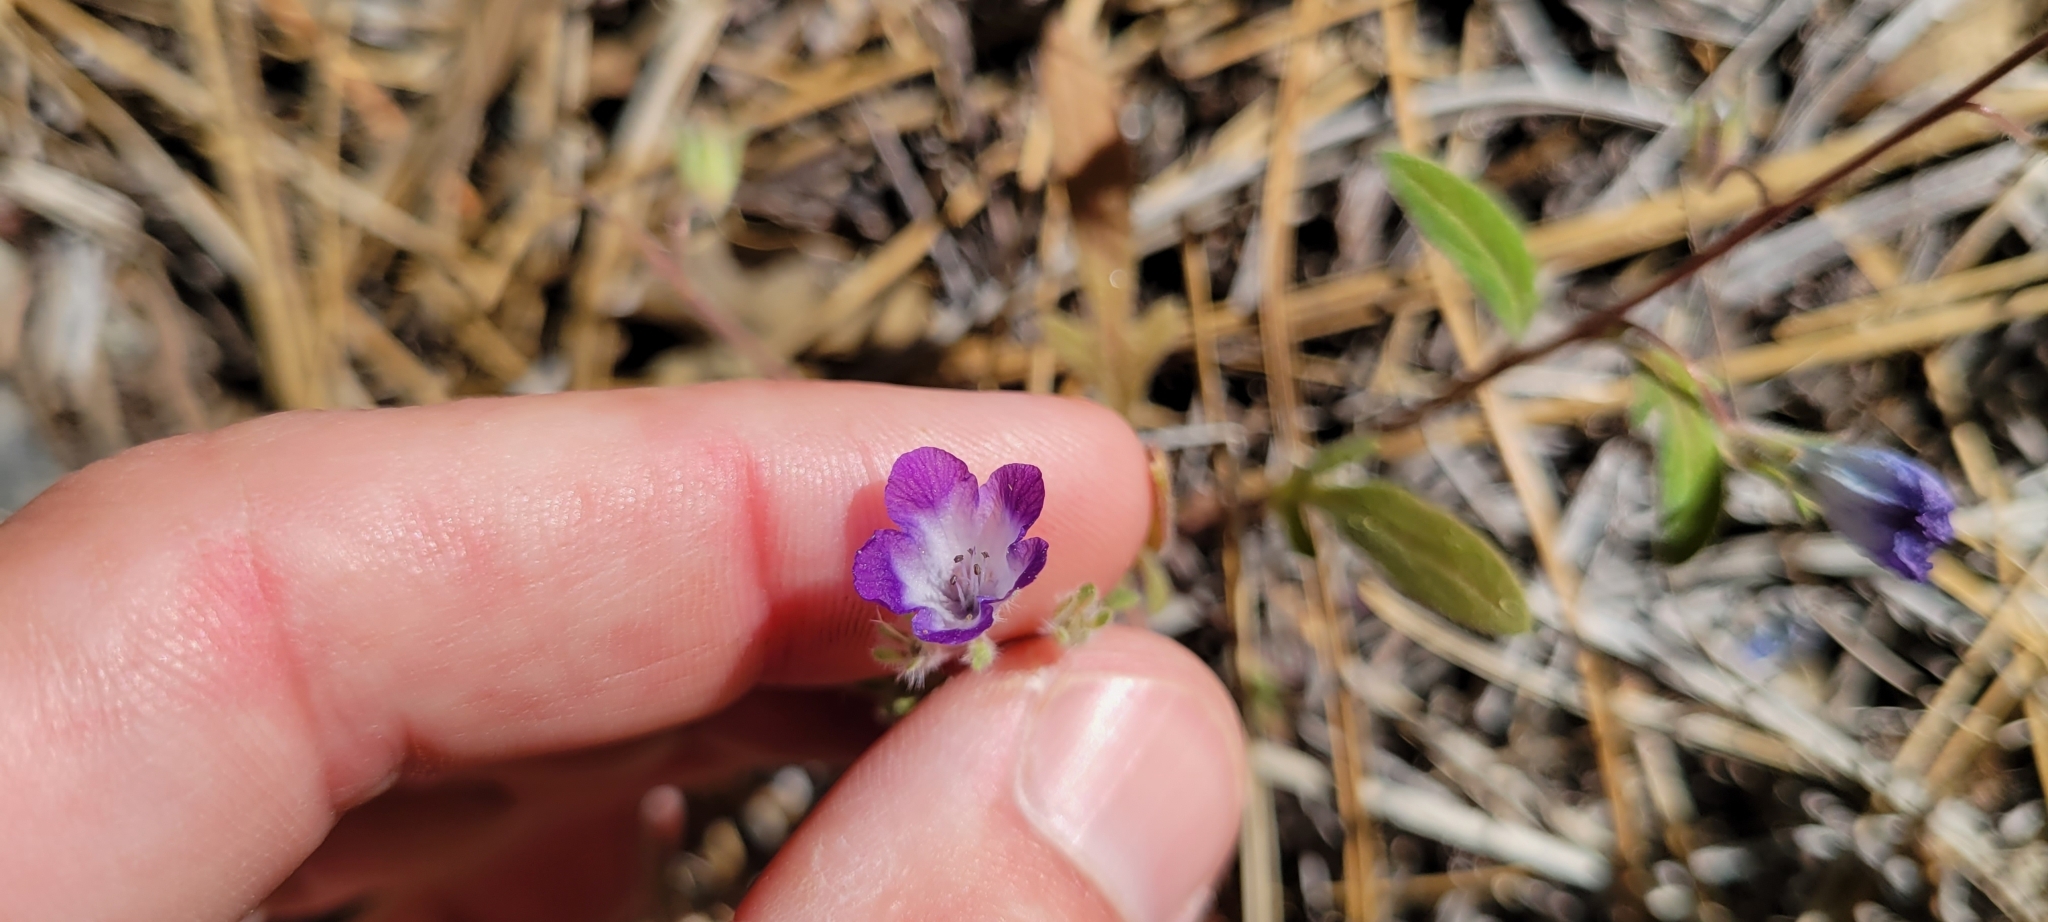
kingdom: Plantae
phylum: Tracheophyta
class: Magnoliopsida
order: Boraginales
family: Hydrophyllaceae
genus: Phacelia
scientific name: Phacelia davidsonii
